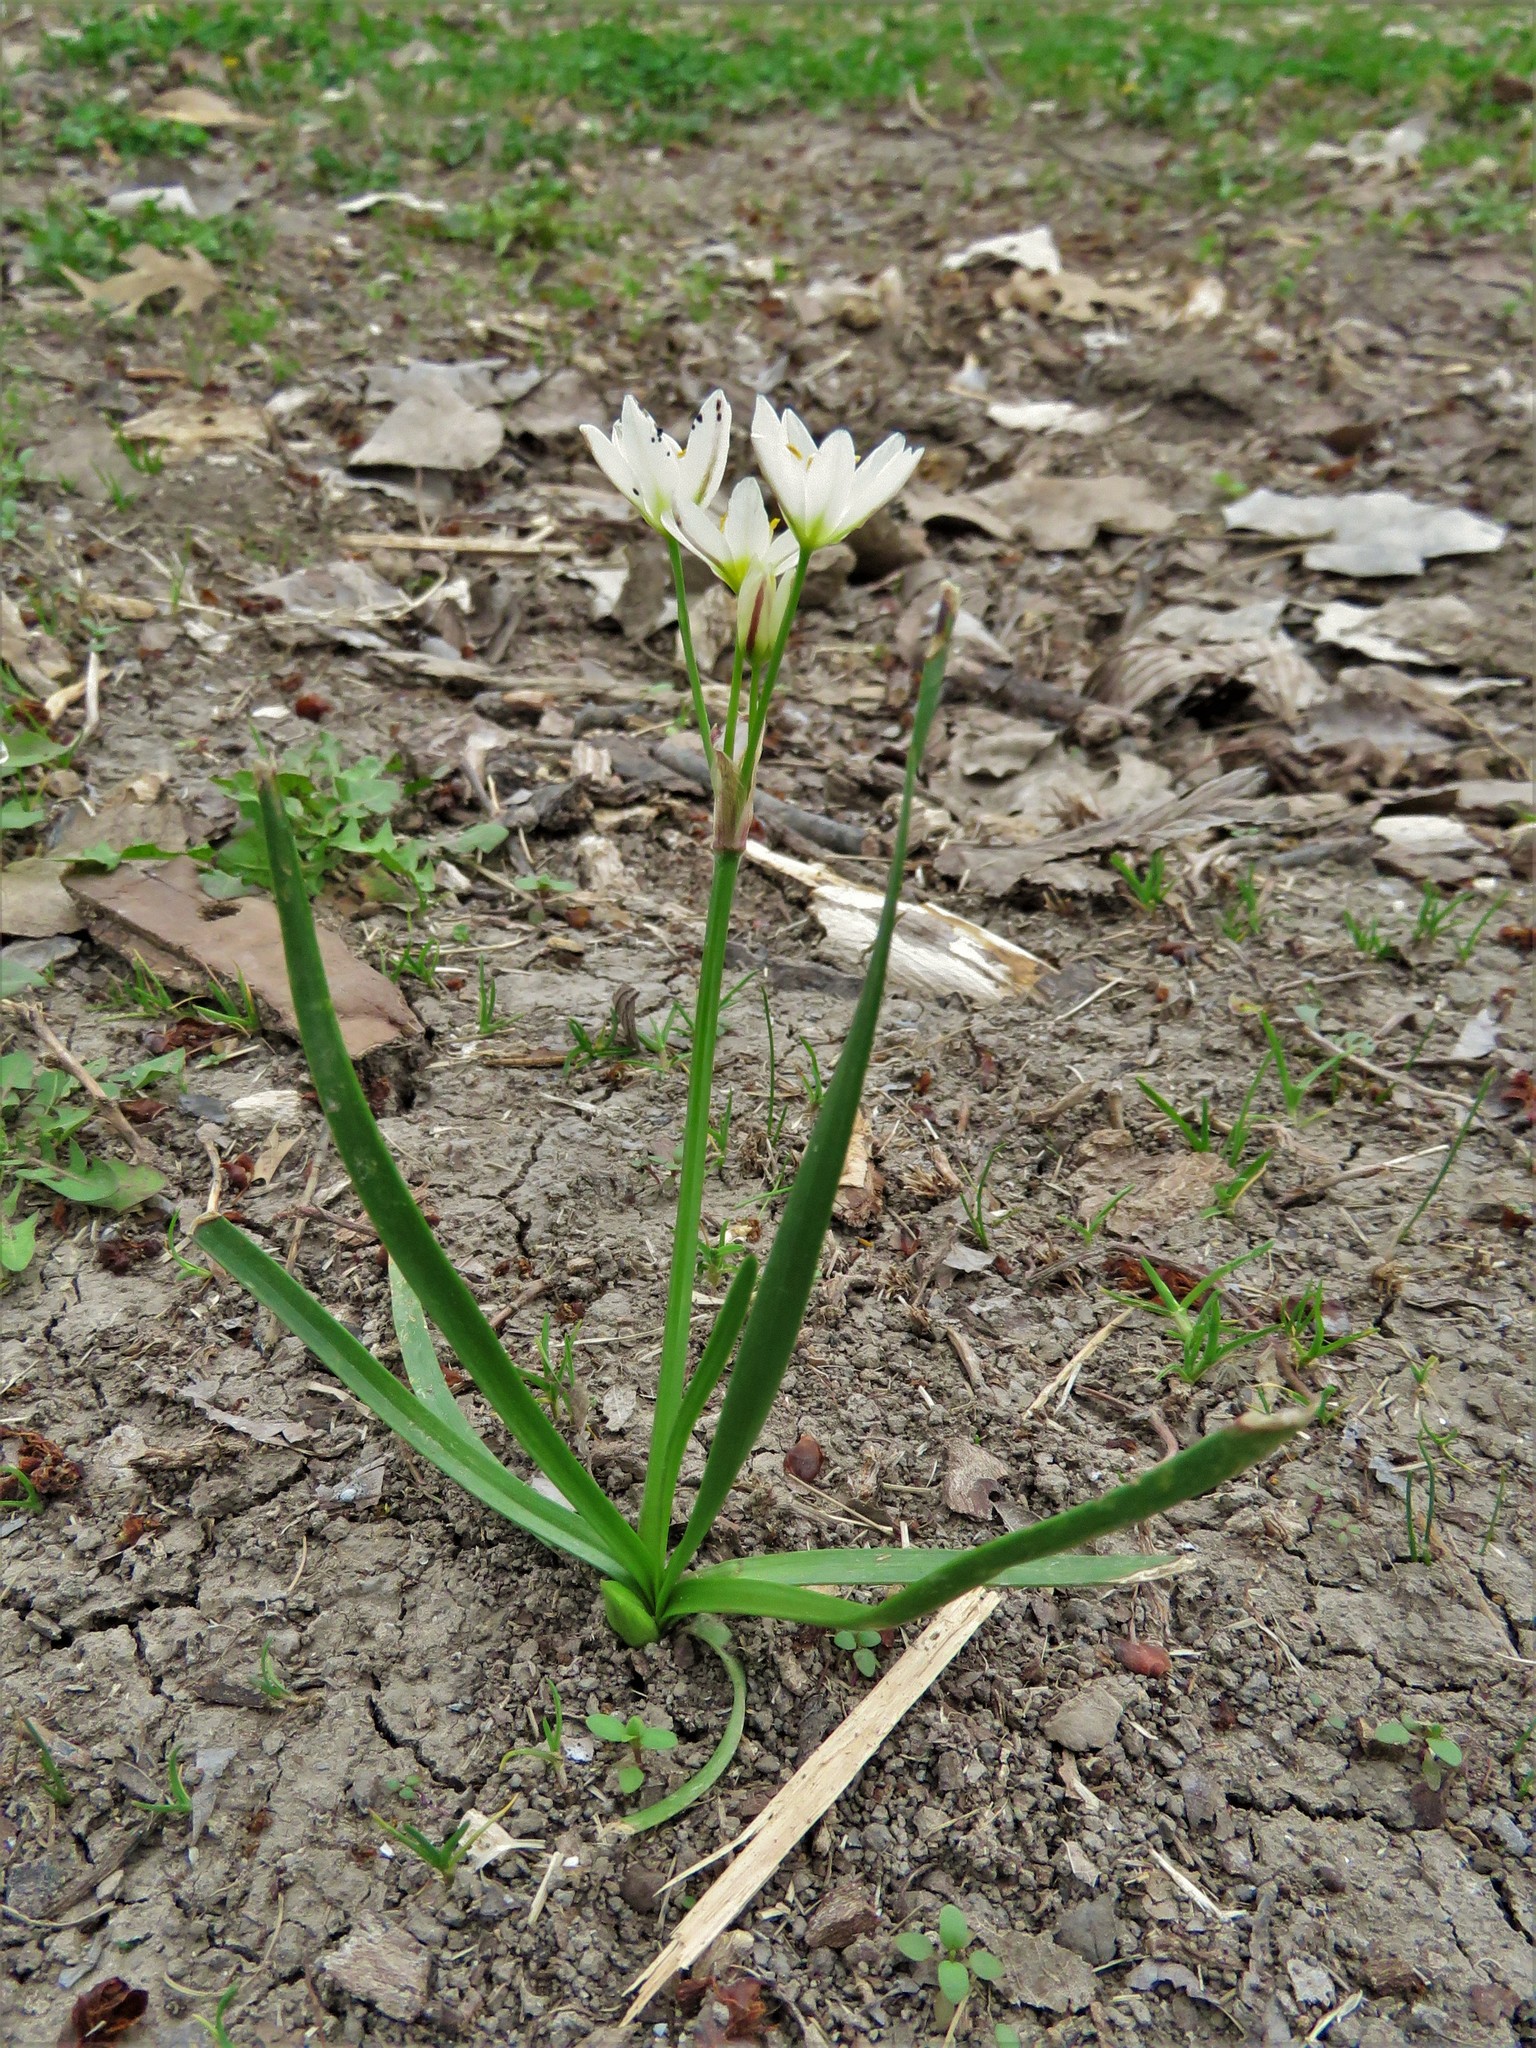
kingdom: Plantae
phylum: Tracheophyta
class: Liliopsida
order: Asparagales
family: Amaryllidaceae
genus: Nothoscordum
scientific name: Nothoscordum bivalve
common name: Crow-poison
